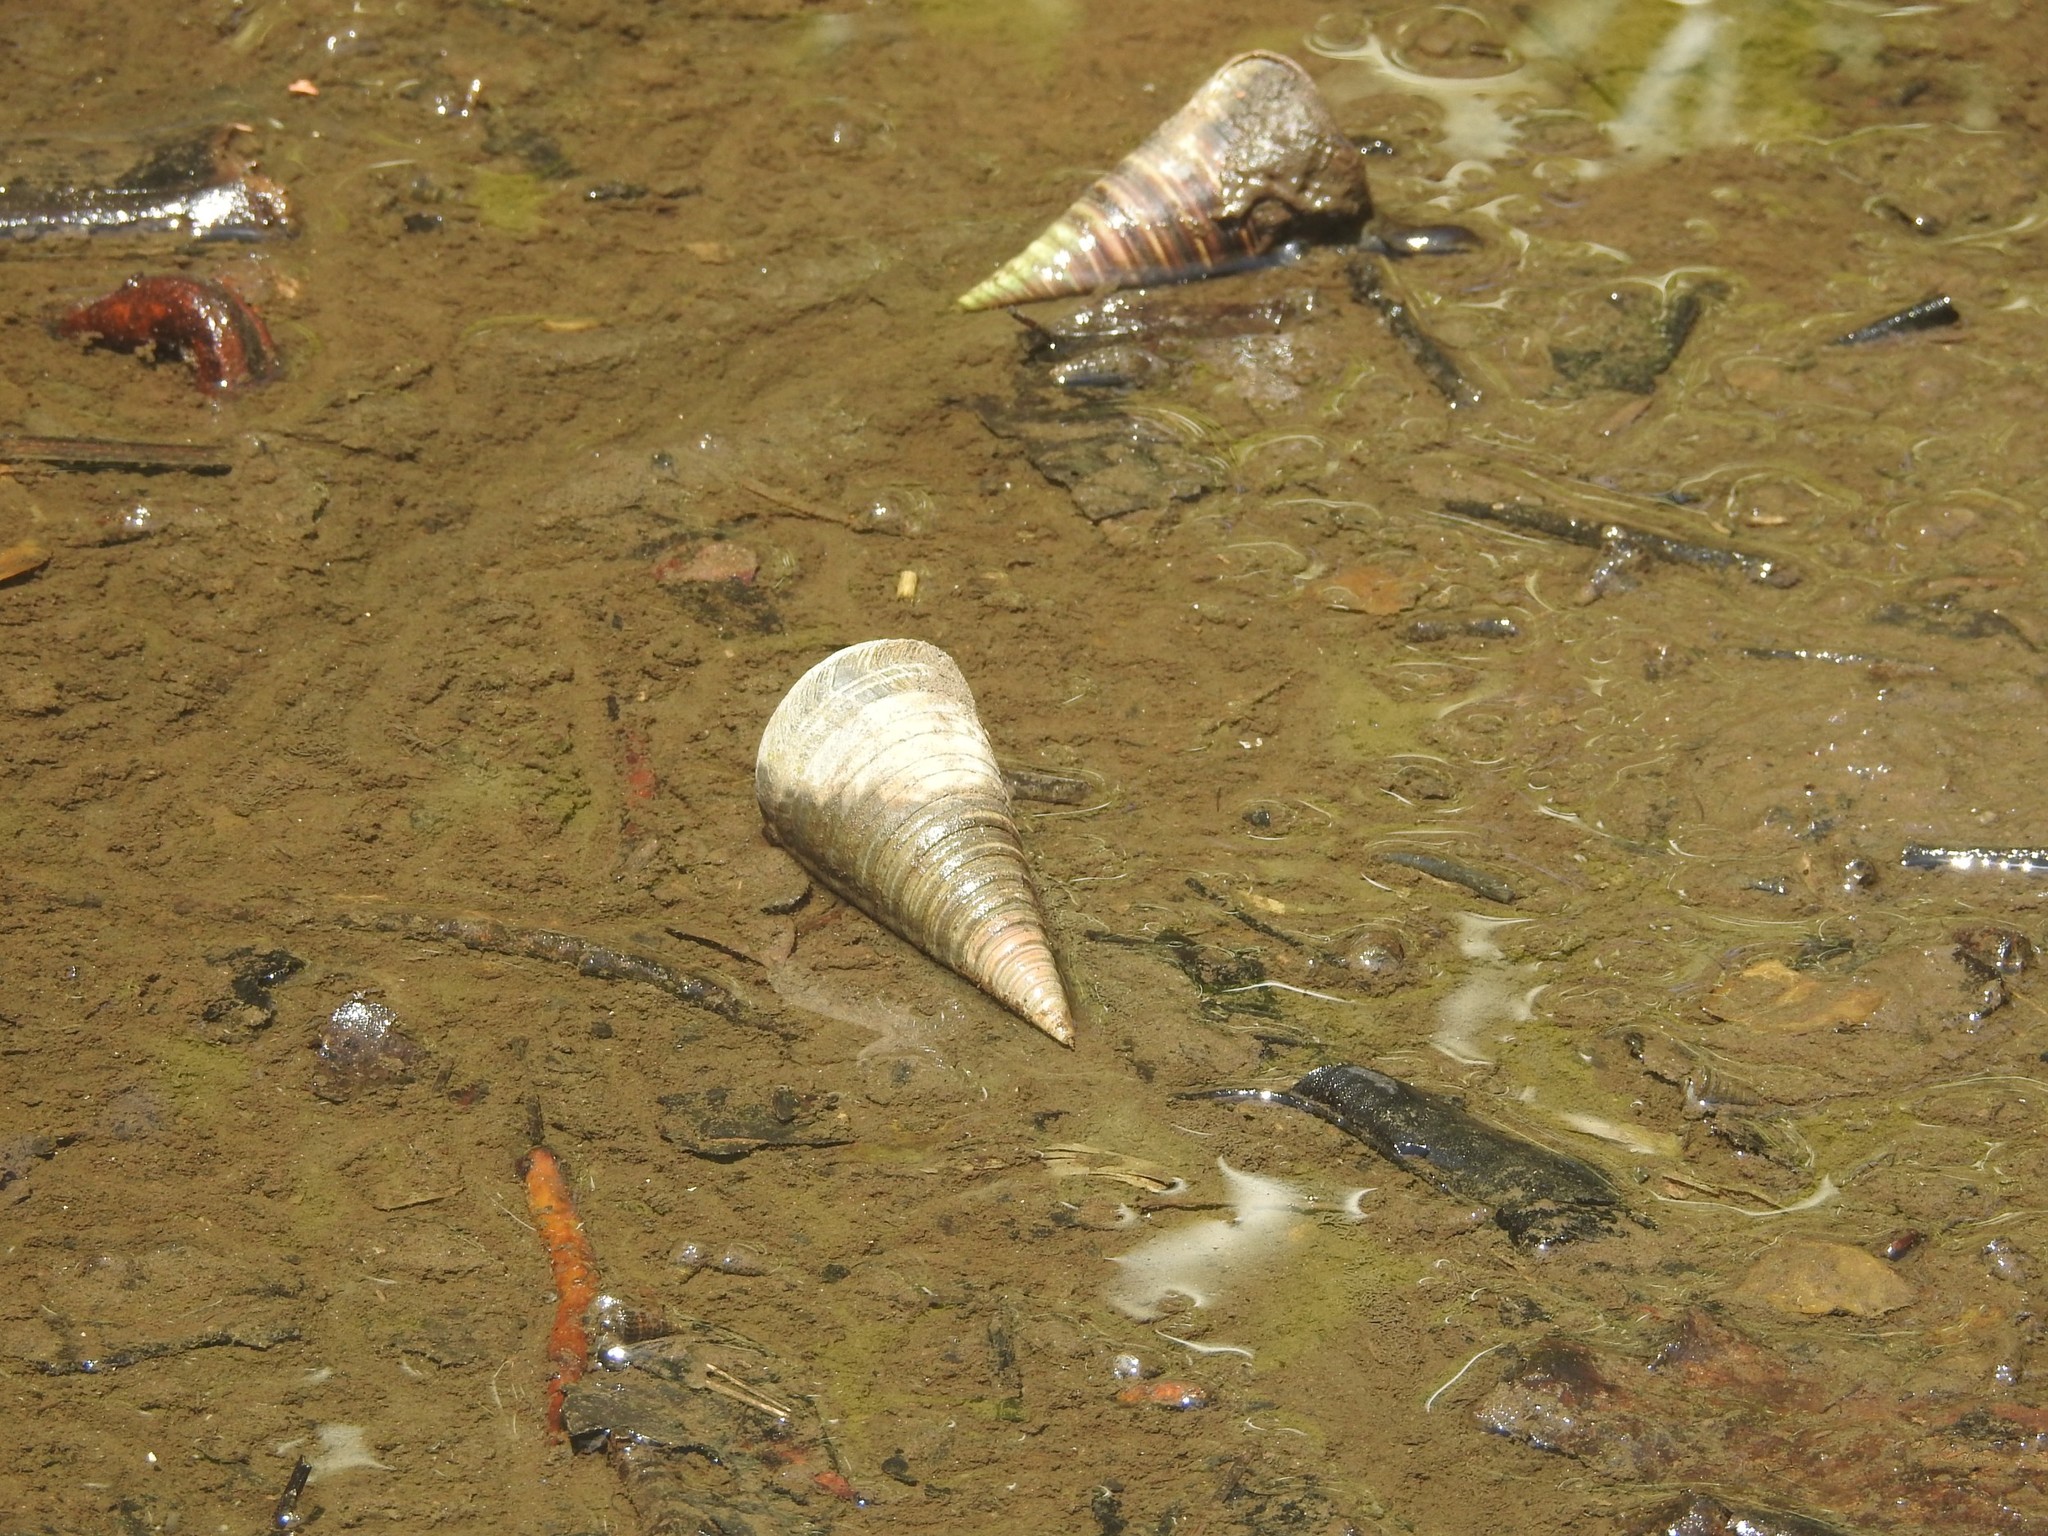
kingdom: Animalia
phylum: Mollusca
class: Gastropoda
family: Potamididae
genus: Telescopium
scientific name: Telescopium telescopium
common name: Telescope creeper
